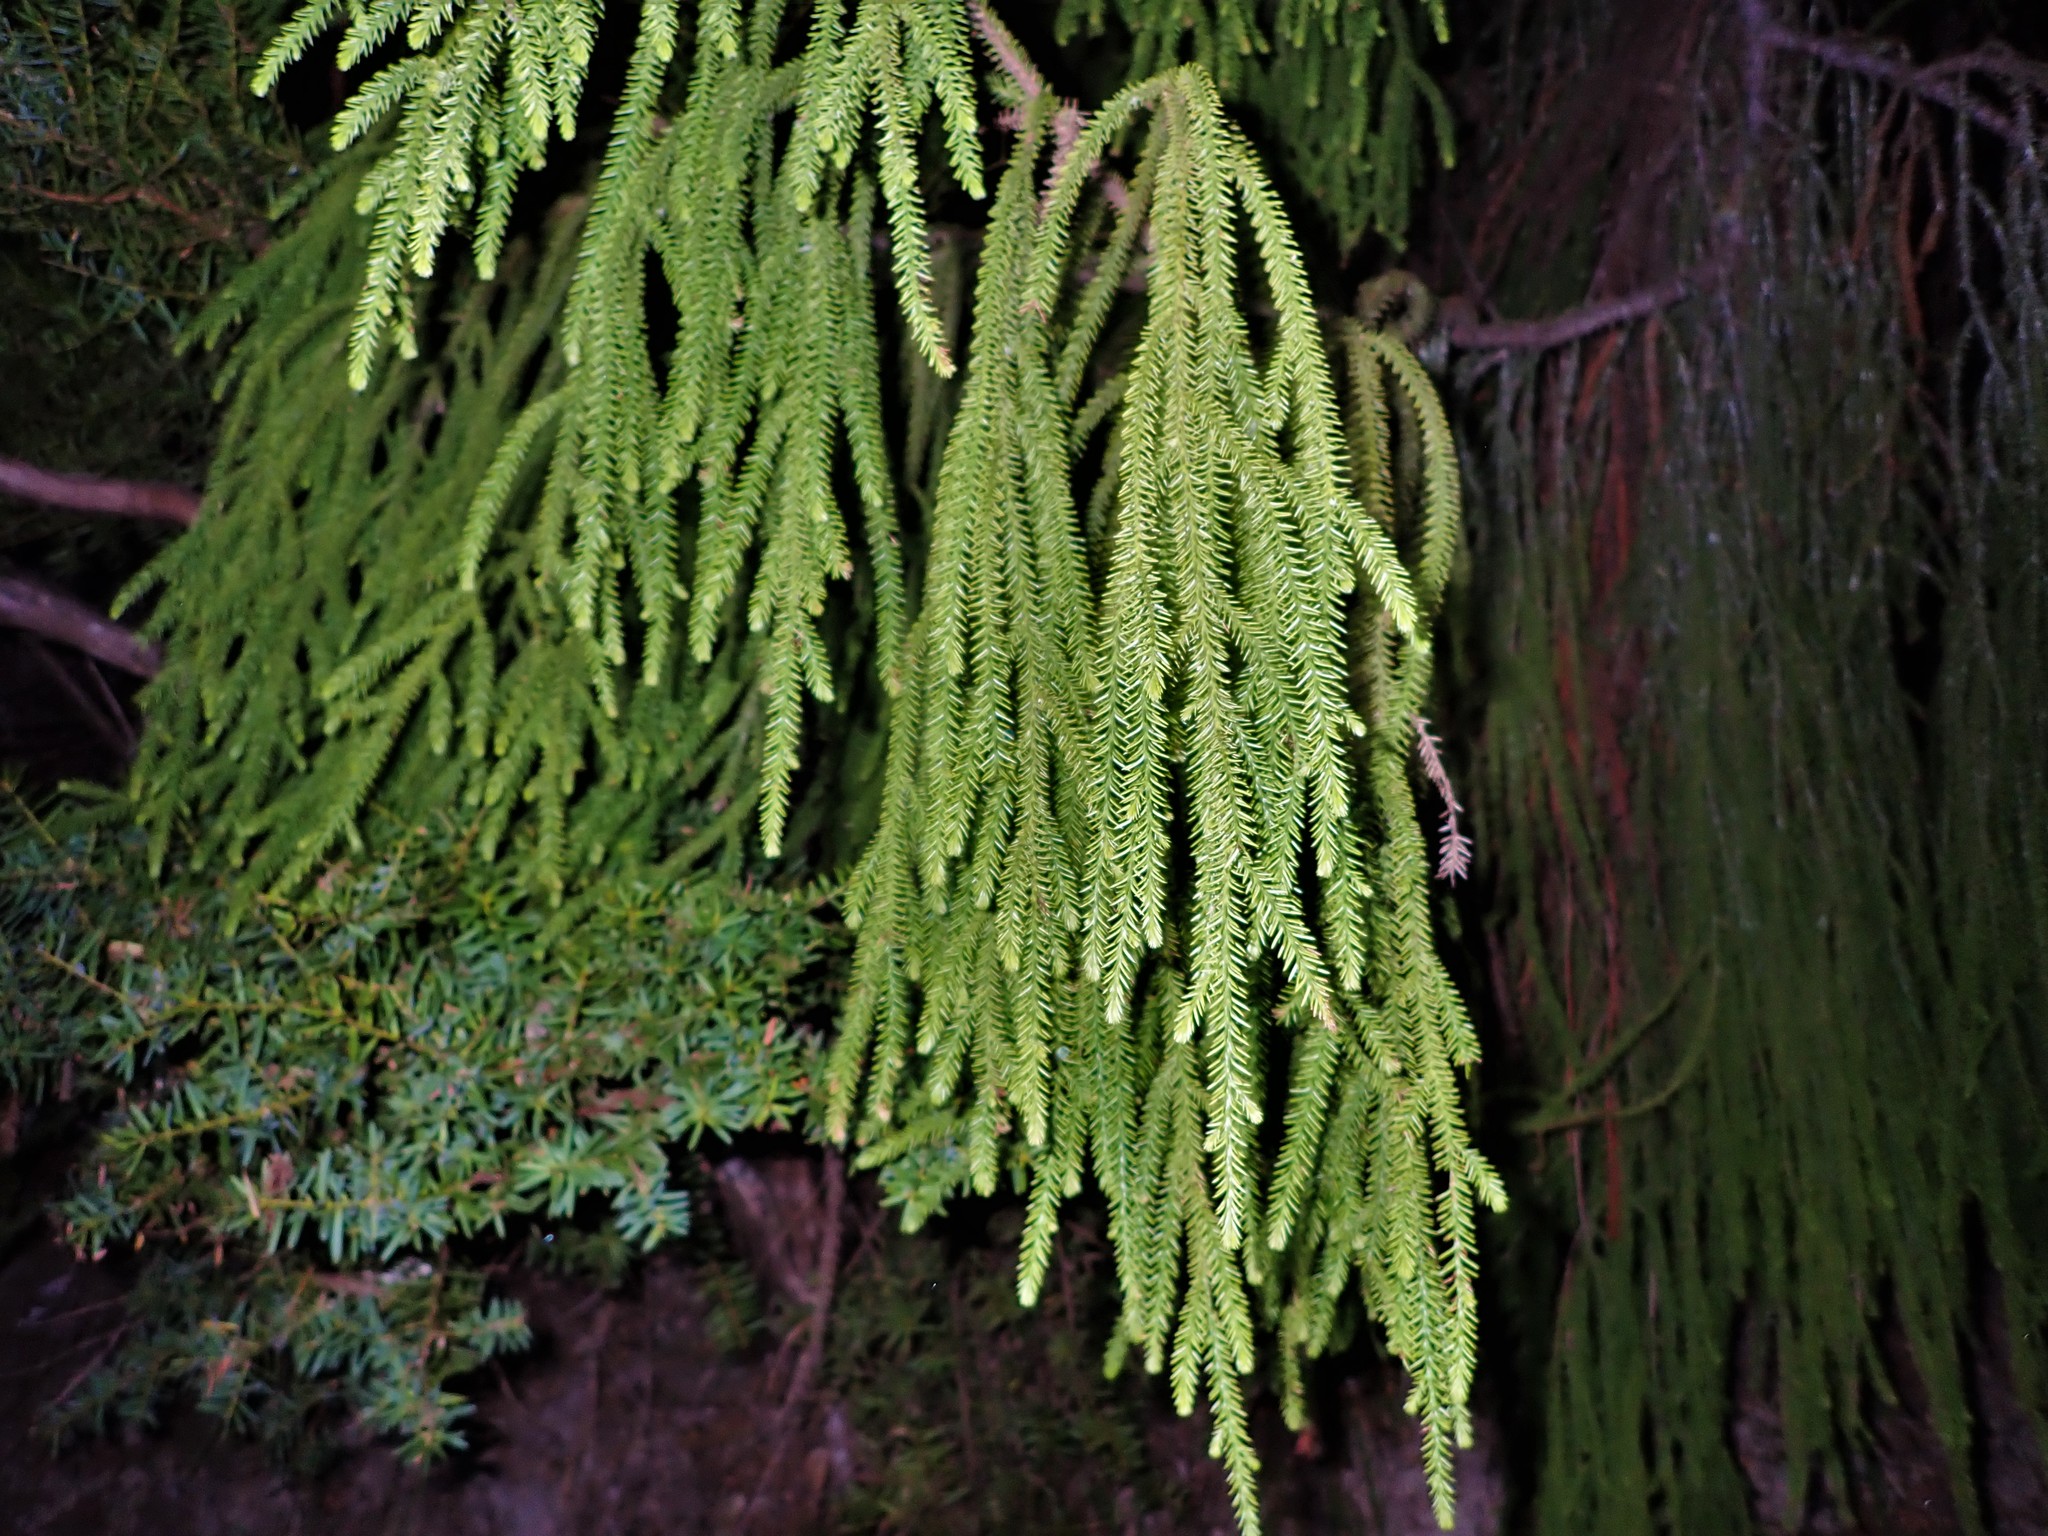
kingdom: Plantae
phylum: Tracheophyta
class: Pinopsida
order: Pinales
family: Podocarpaceae
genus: Dacrydium
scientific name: Dacrydium cupressinum
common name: Red pine
